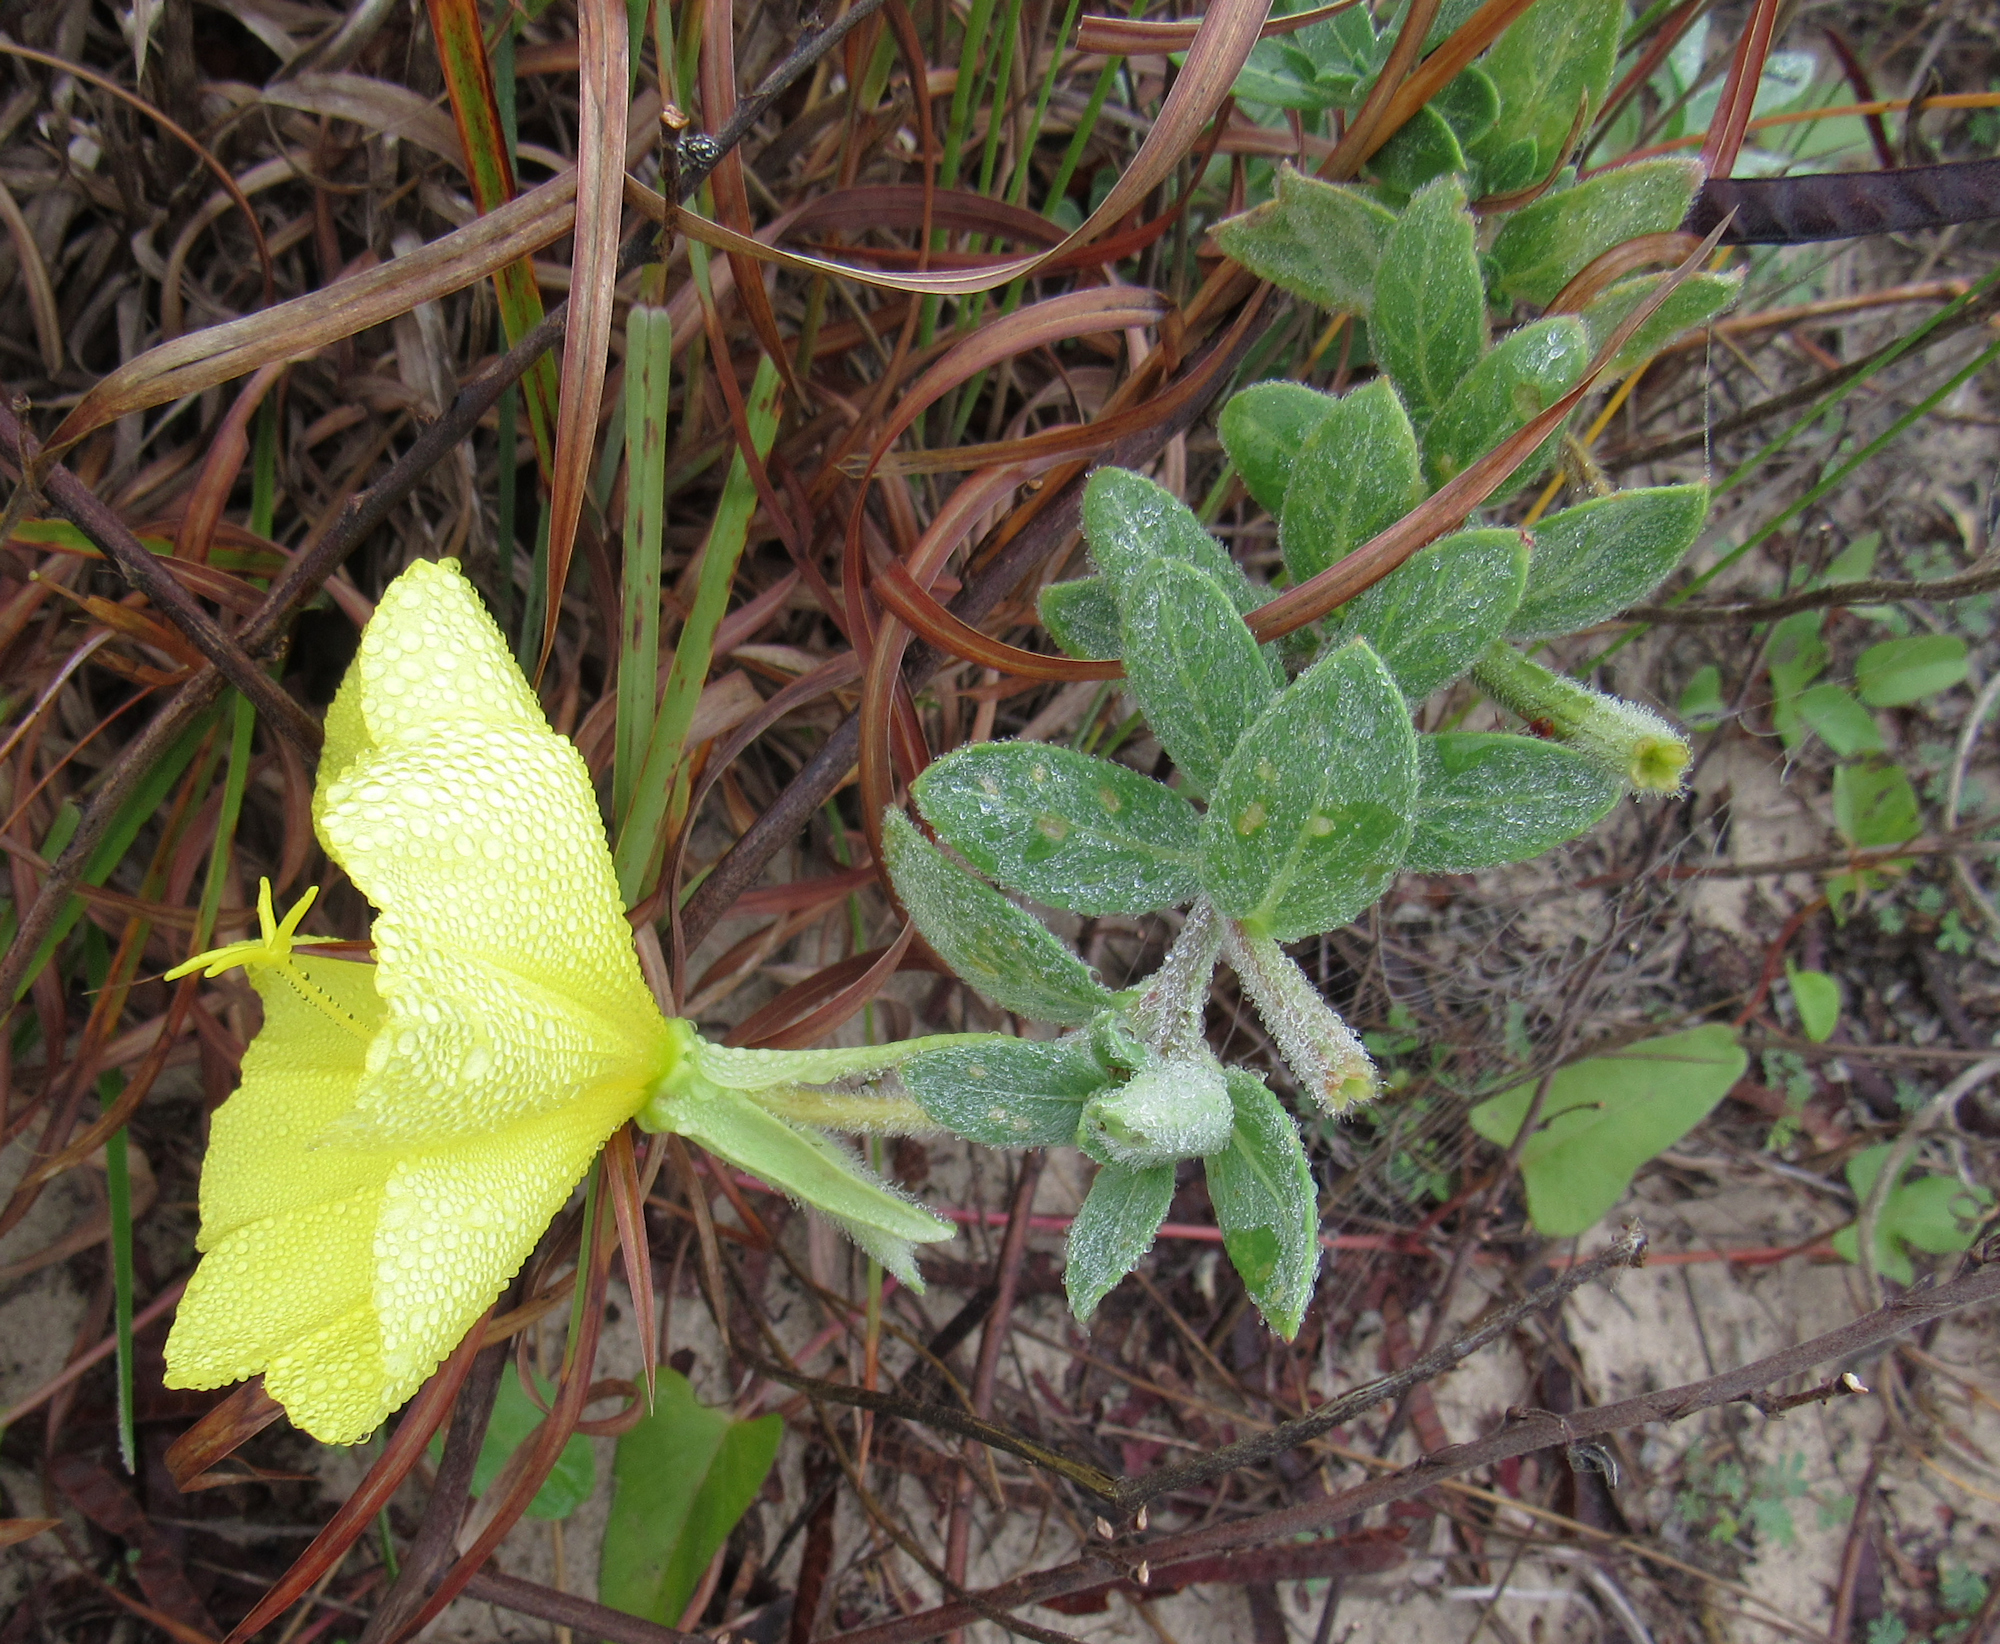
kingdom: Plantae
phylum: Tracheophyta
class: Magnoliopsida
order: Myrtales
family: Onagraceae
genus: Oenothera
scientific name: Oenothera drummondii
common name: Beach evening-primrose
